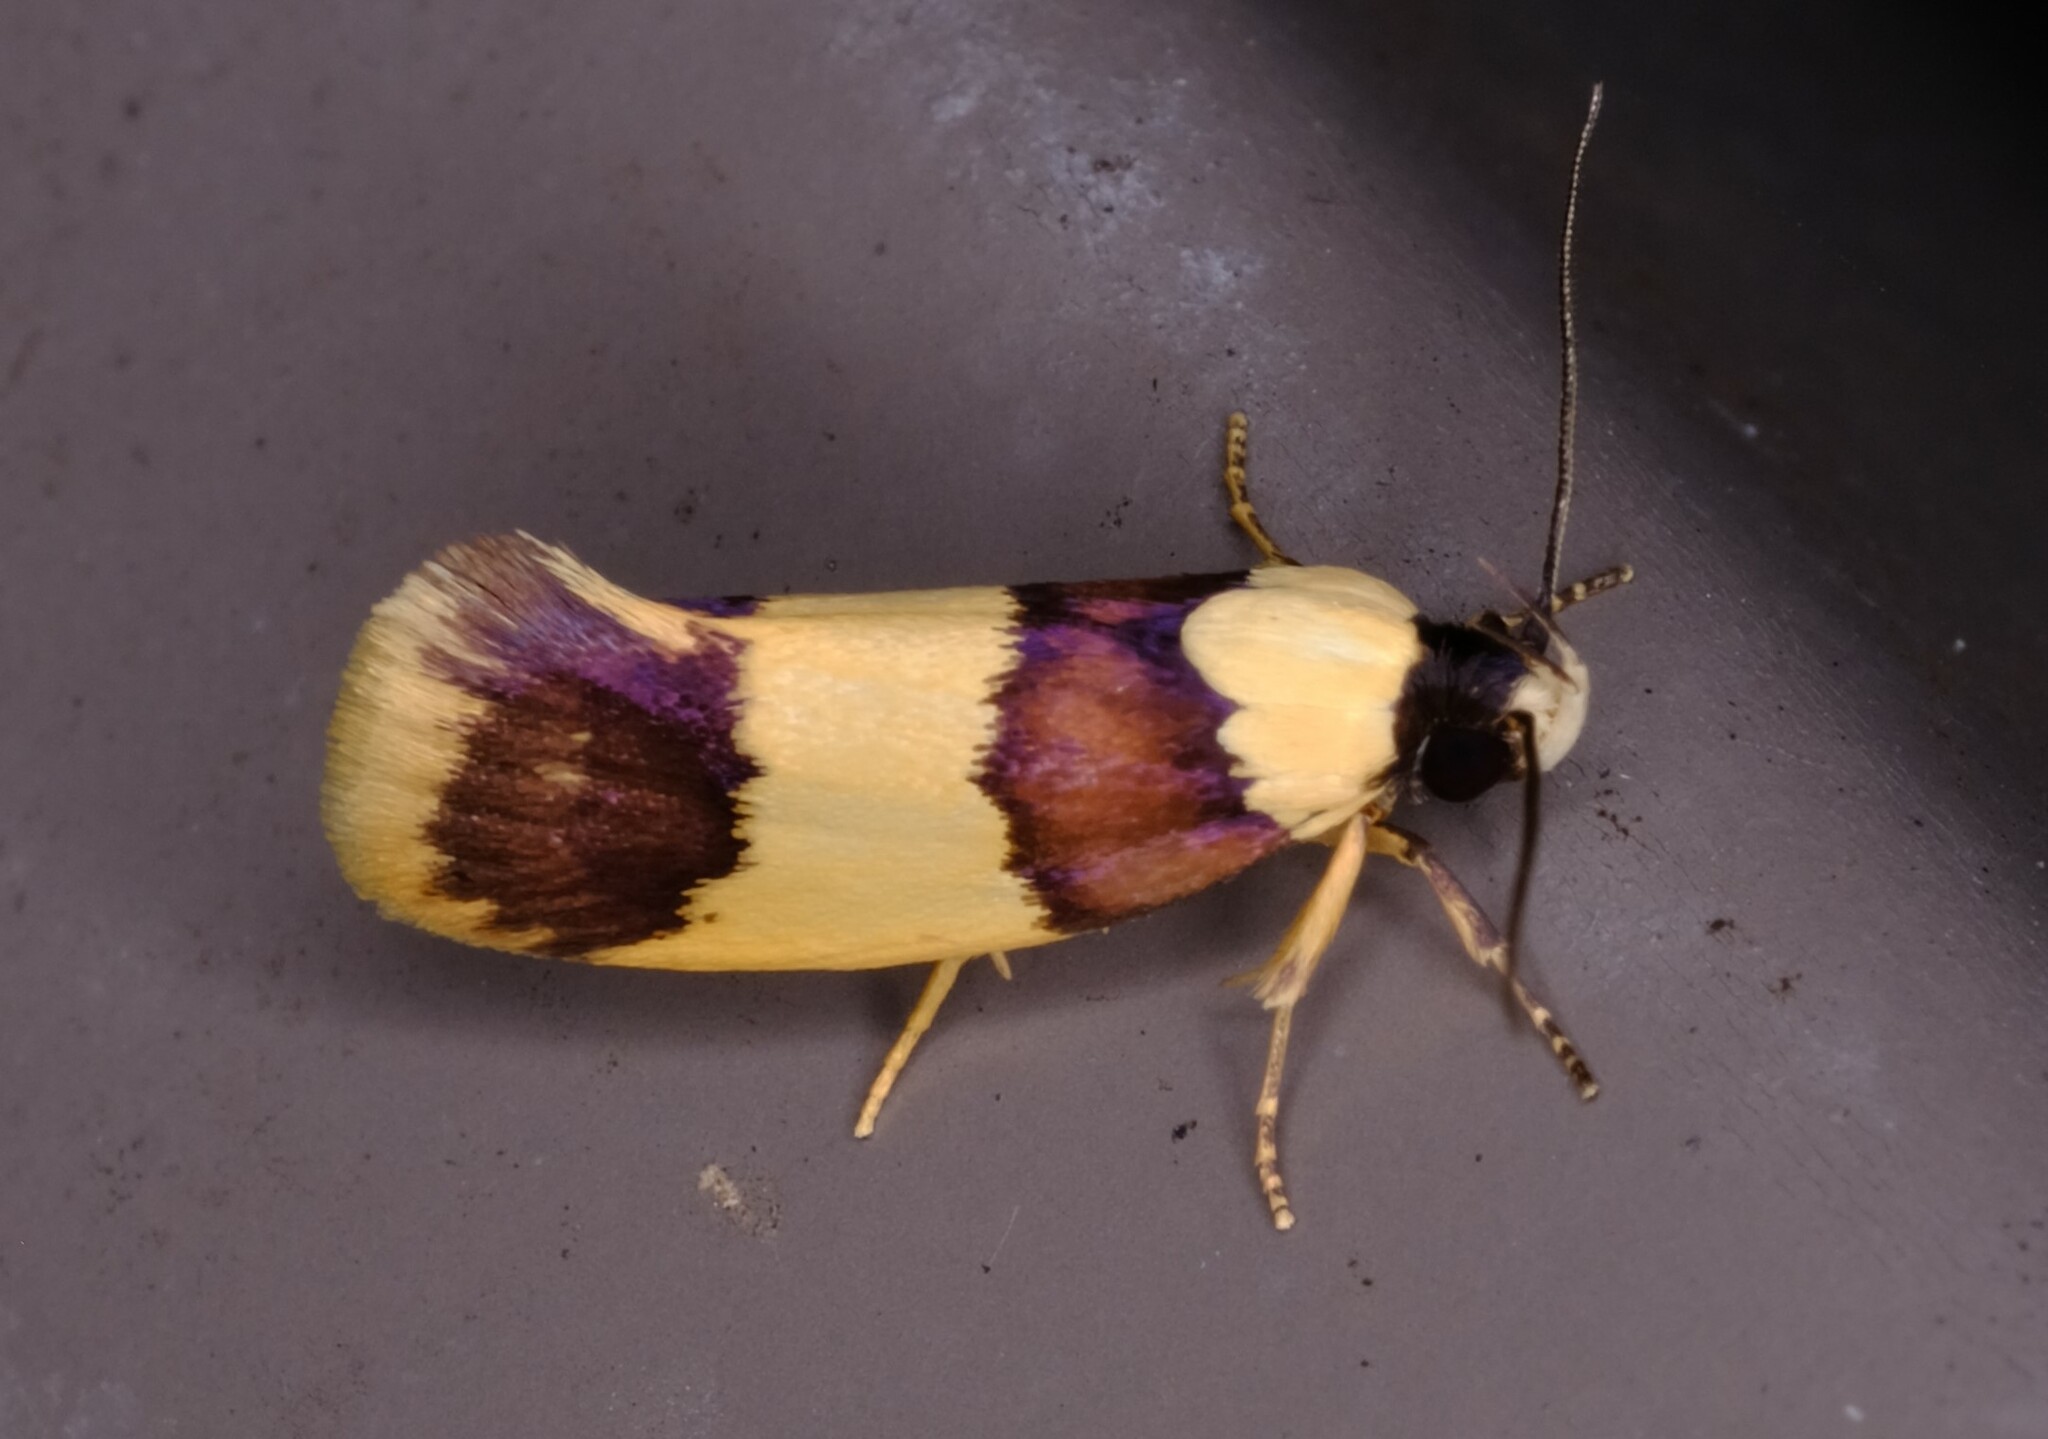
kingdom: Animalia
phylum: Arthropoda
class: Insecta
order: Lepidoptera
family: Xyloryctidae
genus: Telecrates
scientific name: Telecrates laetiorella
